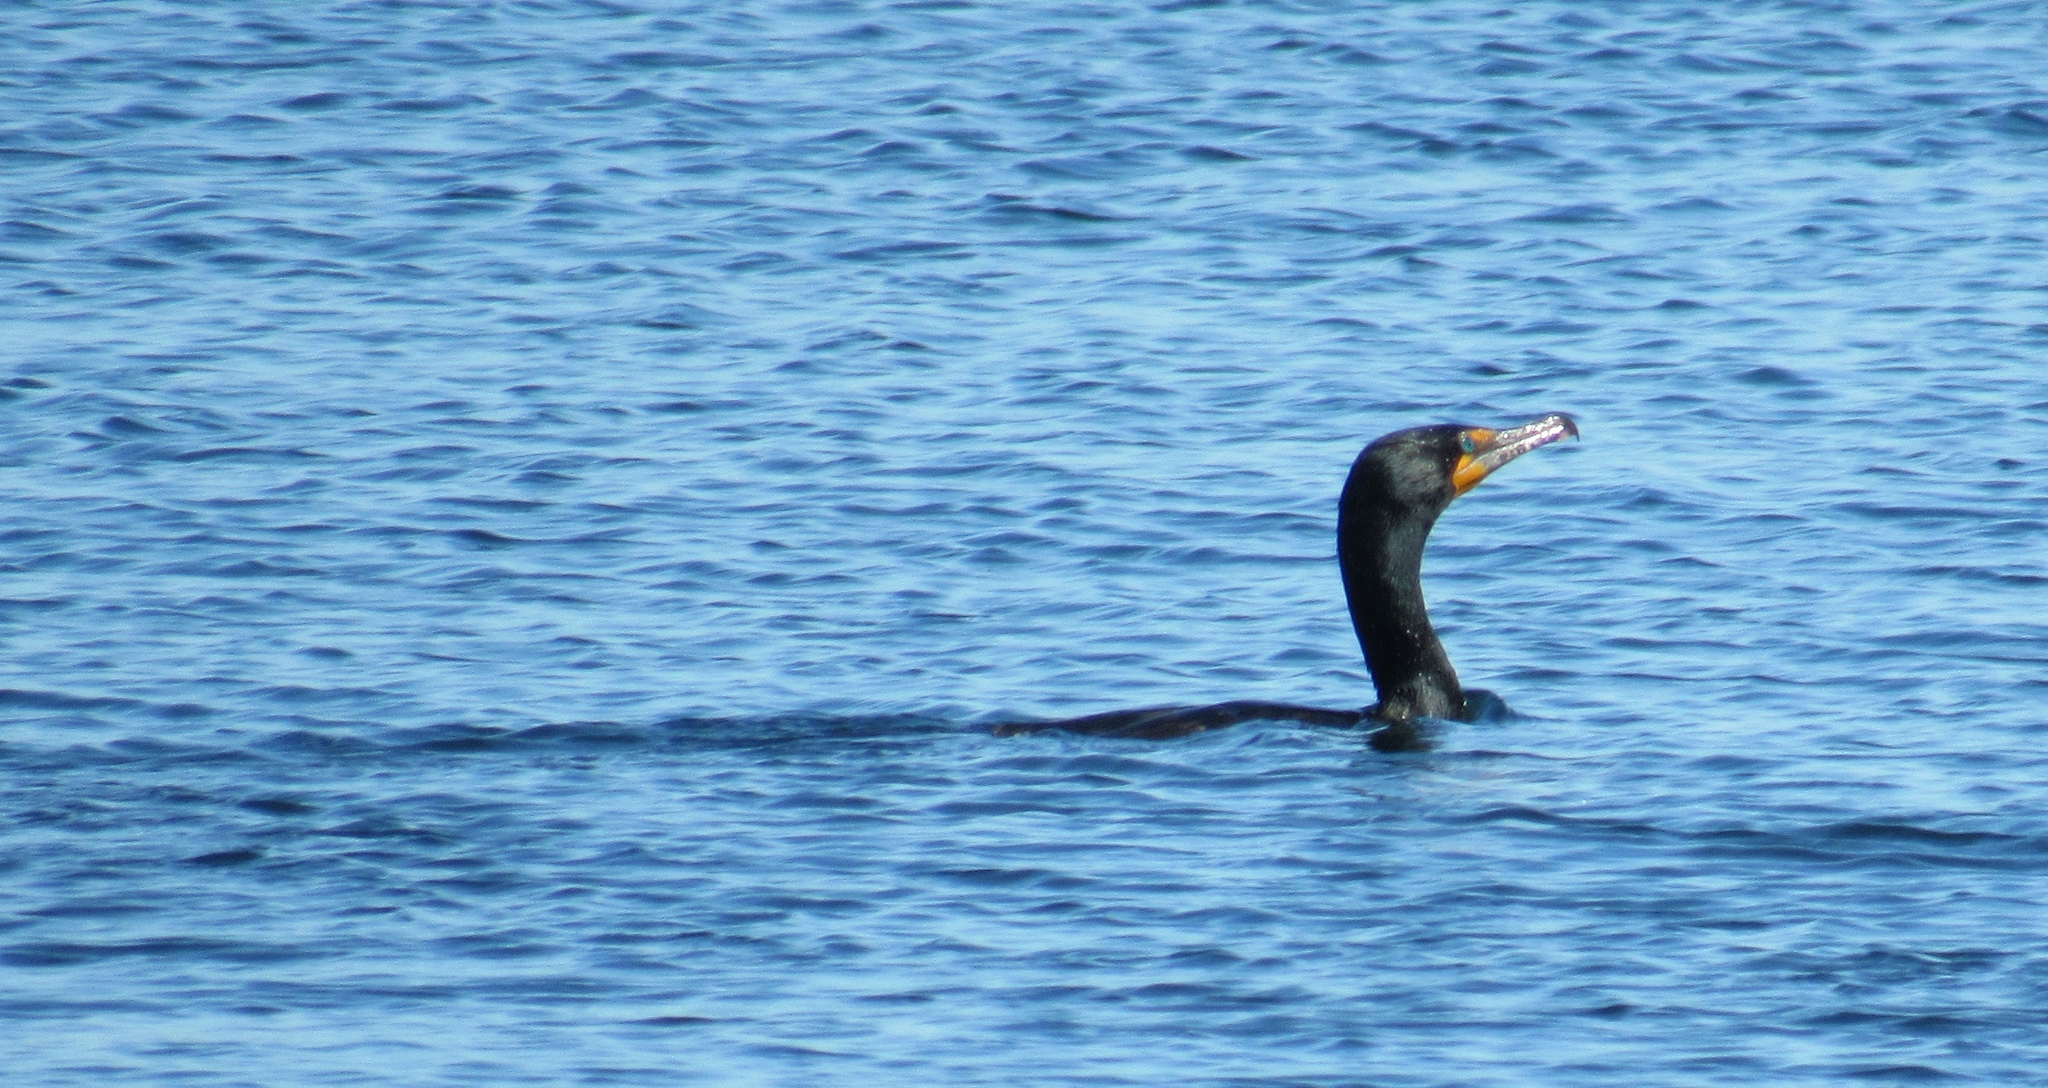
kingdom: Animalia
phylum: Chordata
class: Aves
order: Suliformes
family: Phalacrocoracidae
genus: Phalacrocorax
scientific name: Phalacrocorax auritus
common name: Double-crested cormorant
